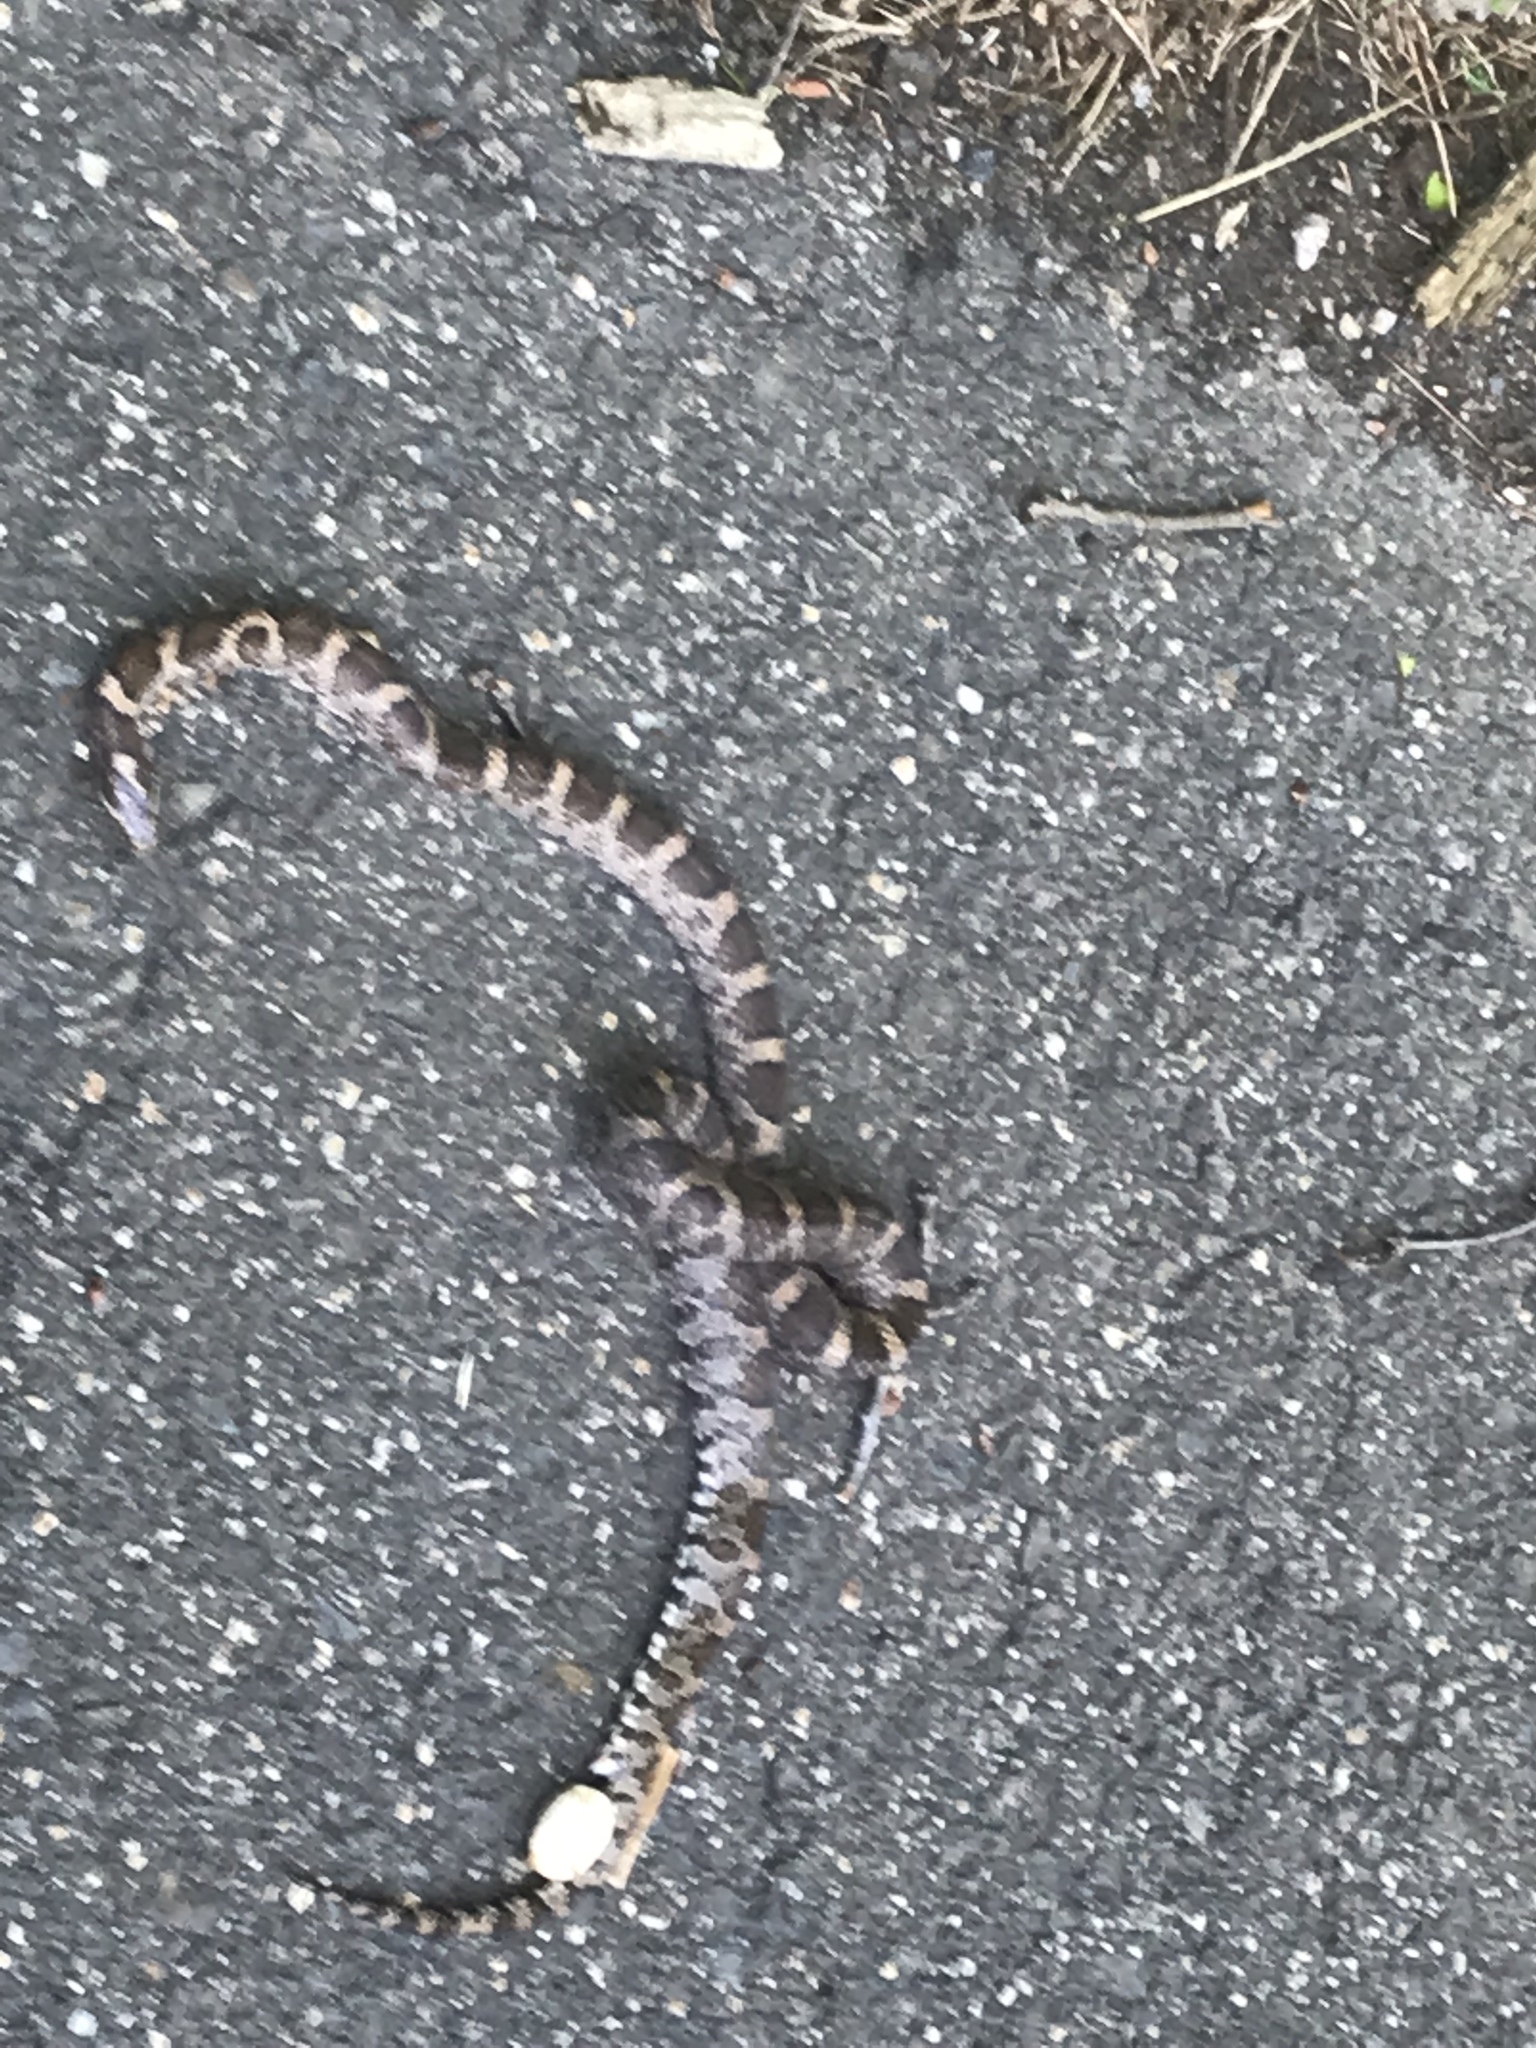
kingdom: Animalia
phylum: Chordata
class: Squamata
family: Colubridae
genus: Lampropeltis
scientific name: Lampropeltis triangulum
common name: Eastern milksnake
